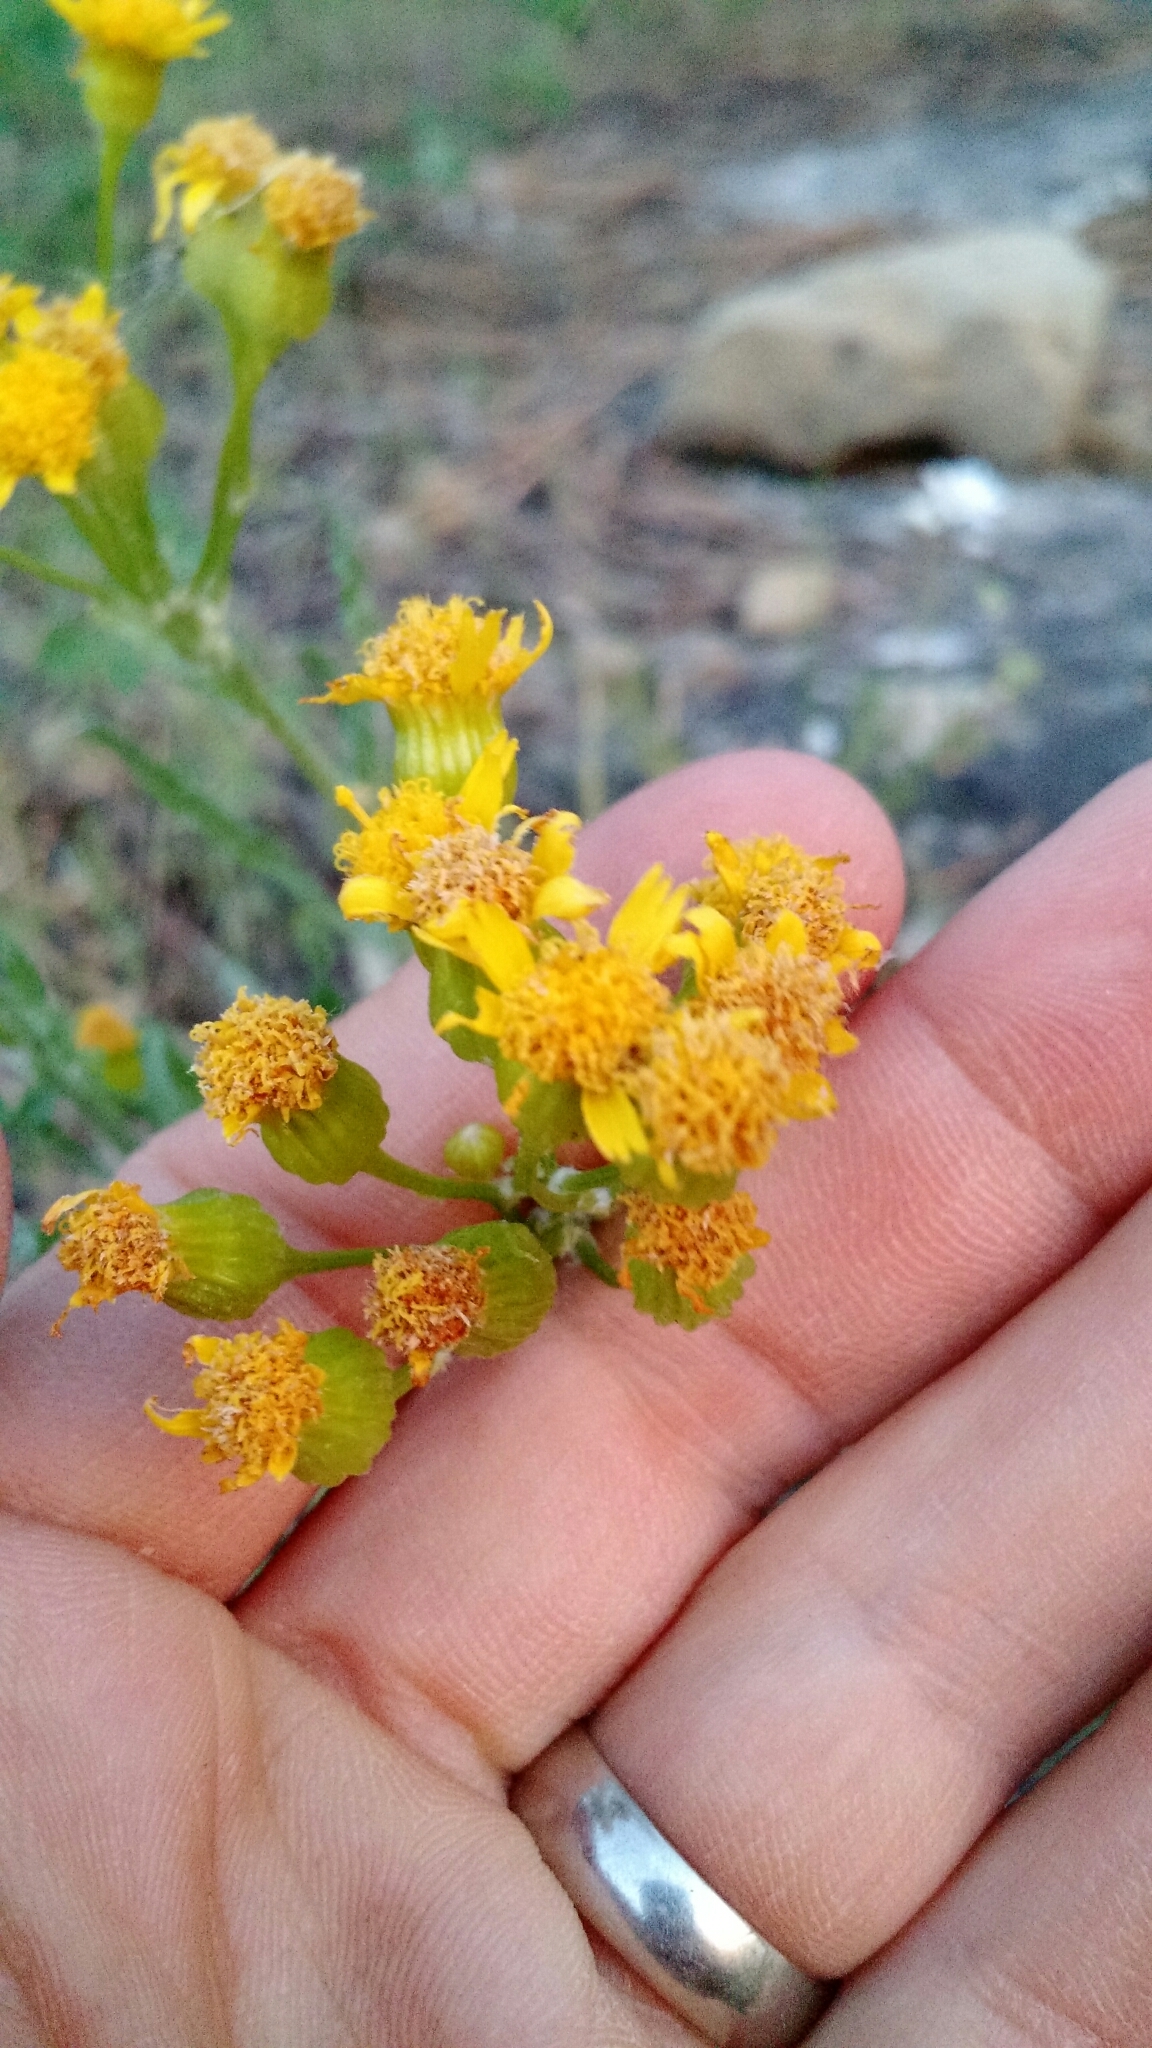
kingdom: Plantae
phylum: Tracheophyta
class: Magnoliopsida
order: Asterales
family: Asteraceae
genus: Packera
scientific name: Packera cana
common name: Woolly groundsel
